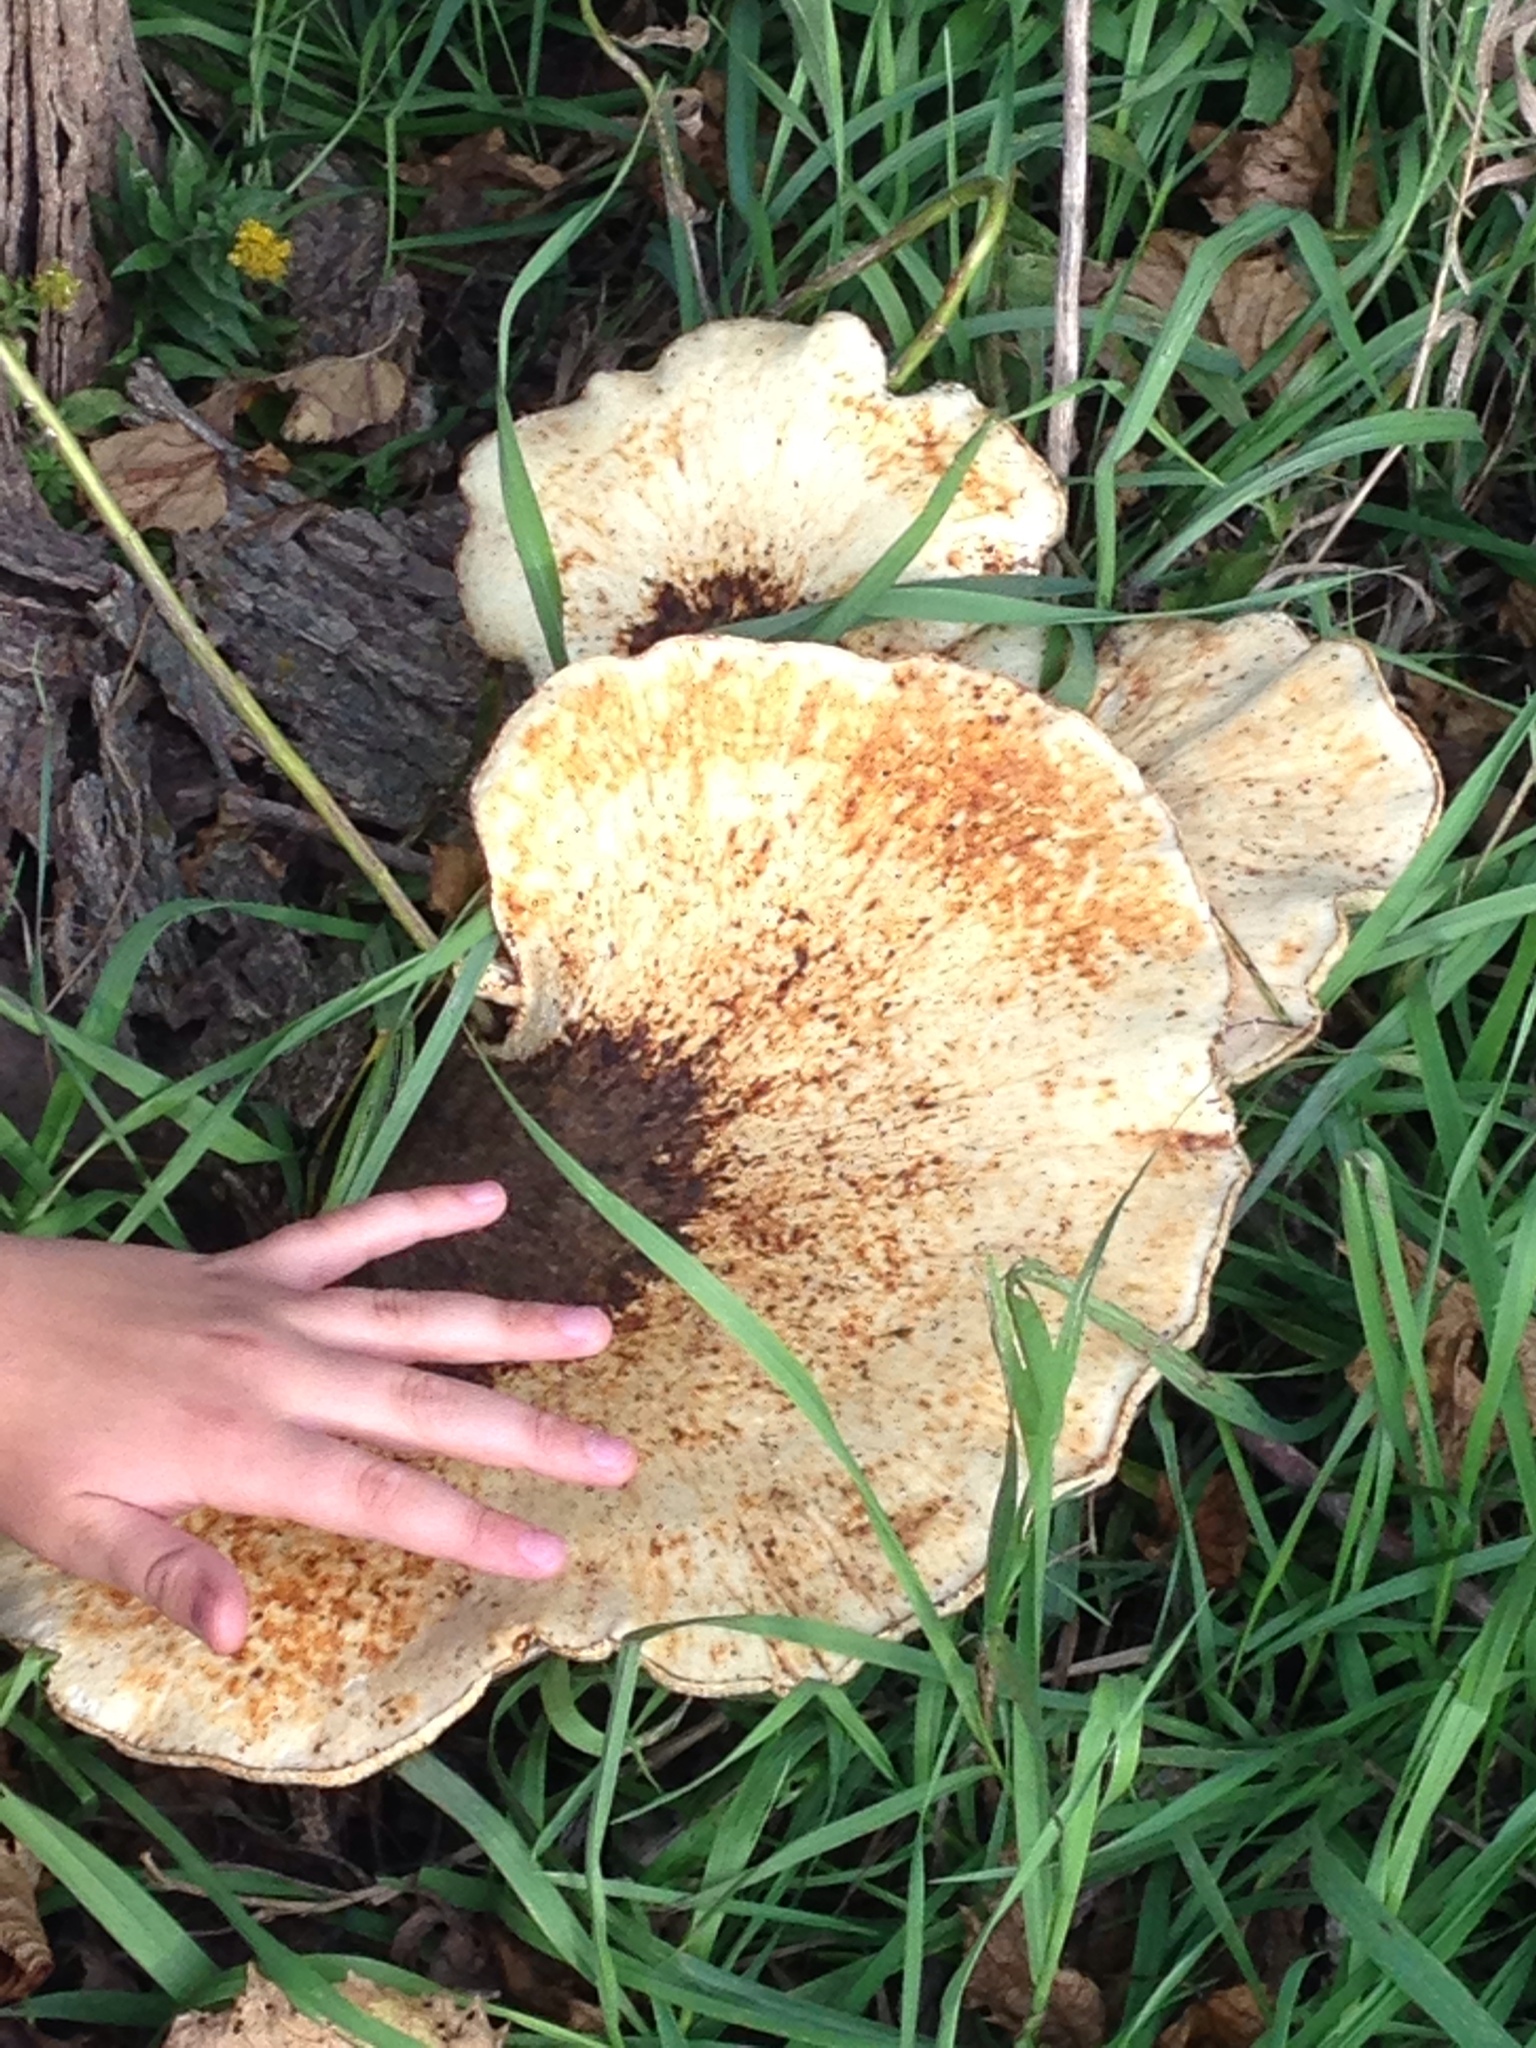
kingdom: Fungi
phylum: Basidiomycota
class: Agaricomycetes
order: Polyporales
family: Polyporaceae
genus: Cerioporus
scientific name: Cerioporus squamosus
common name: Dryad's saddle
